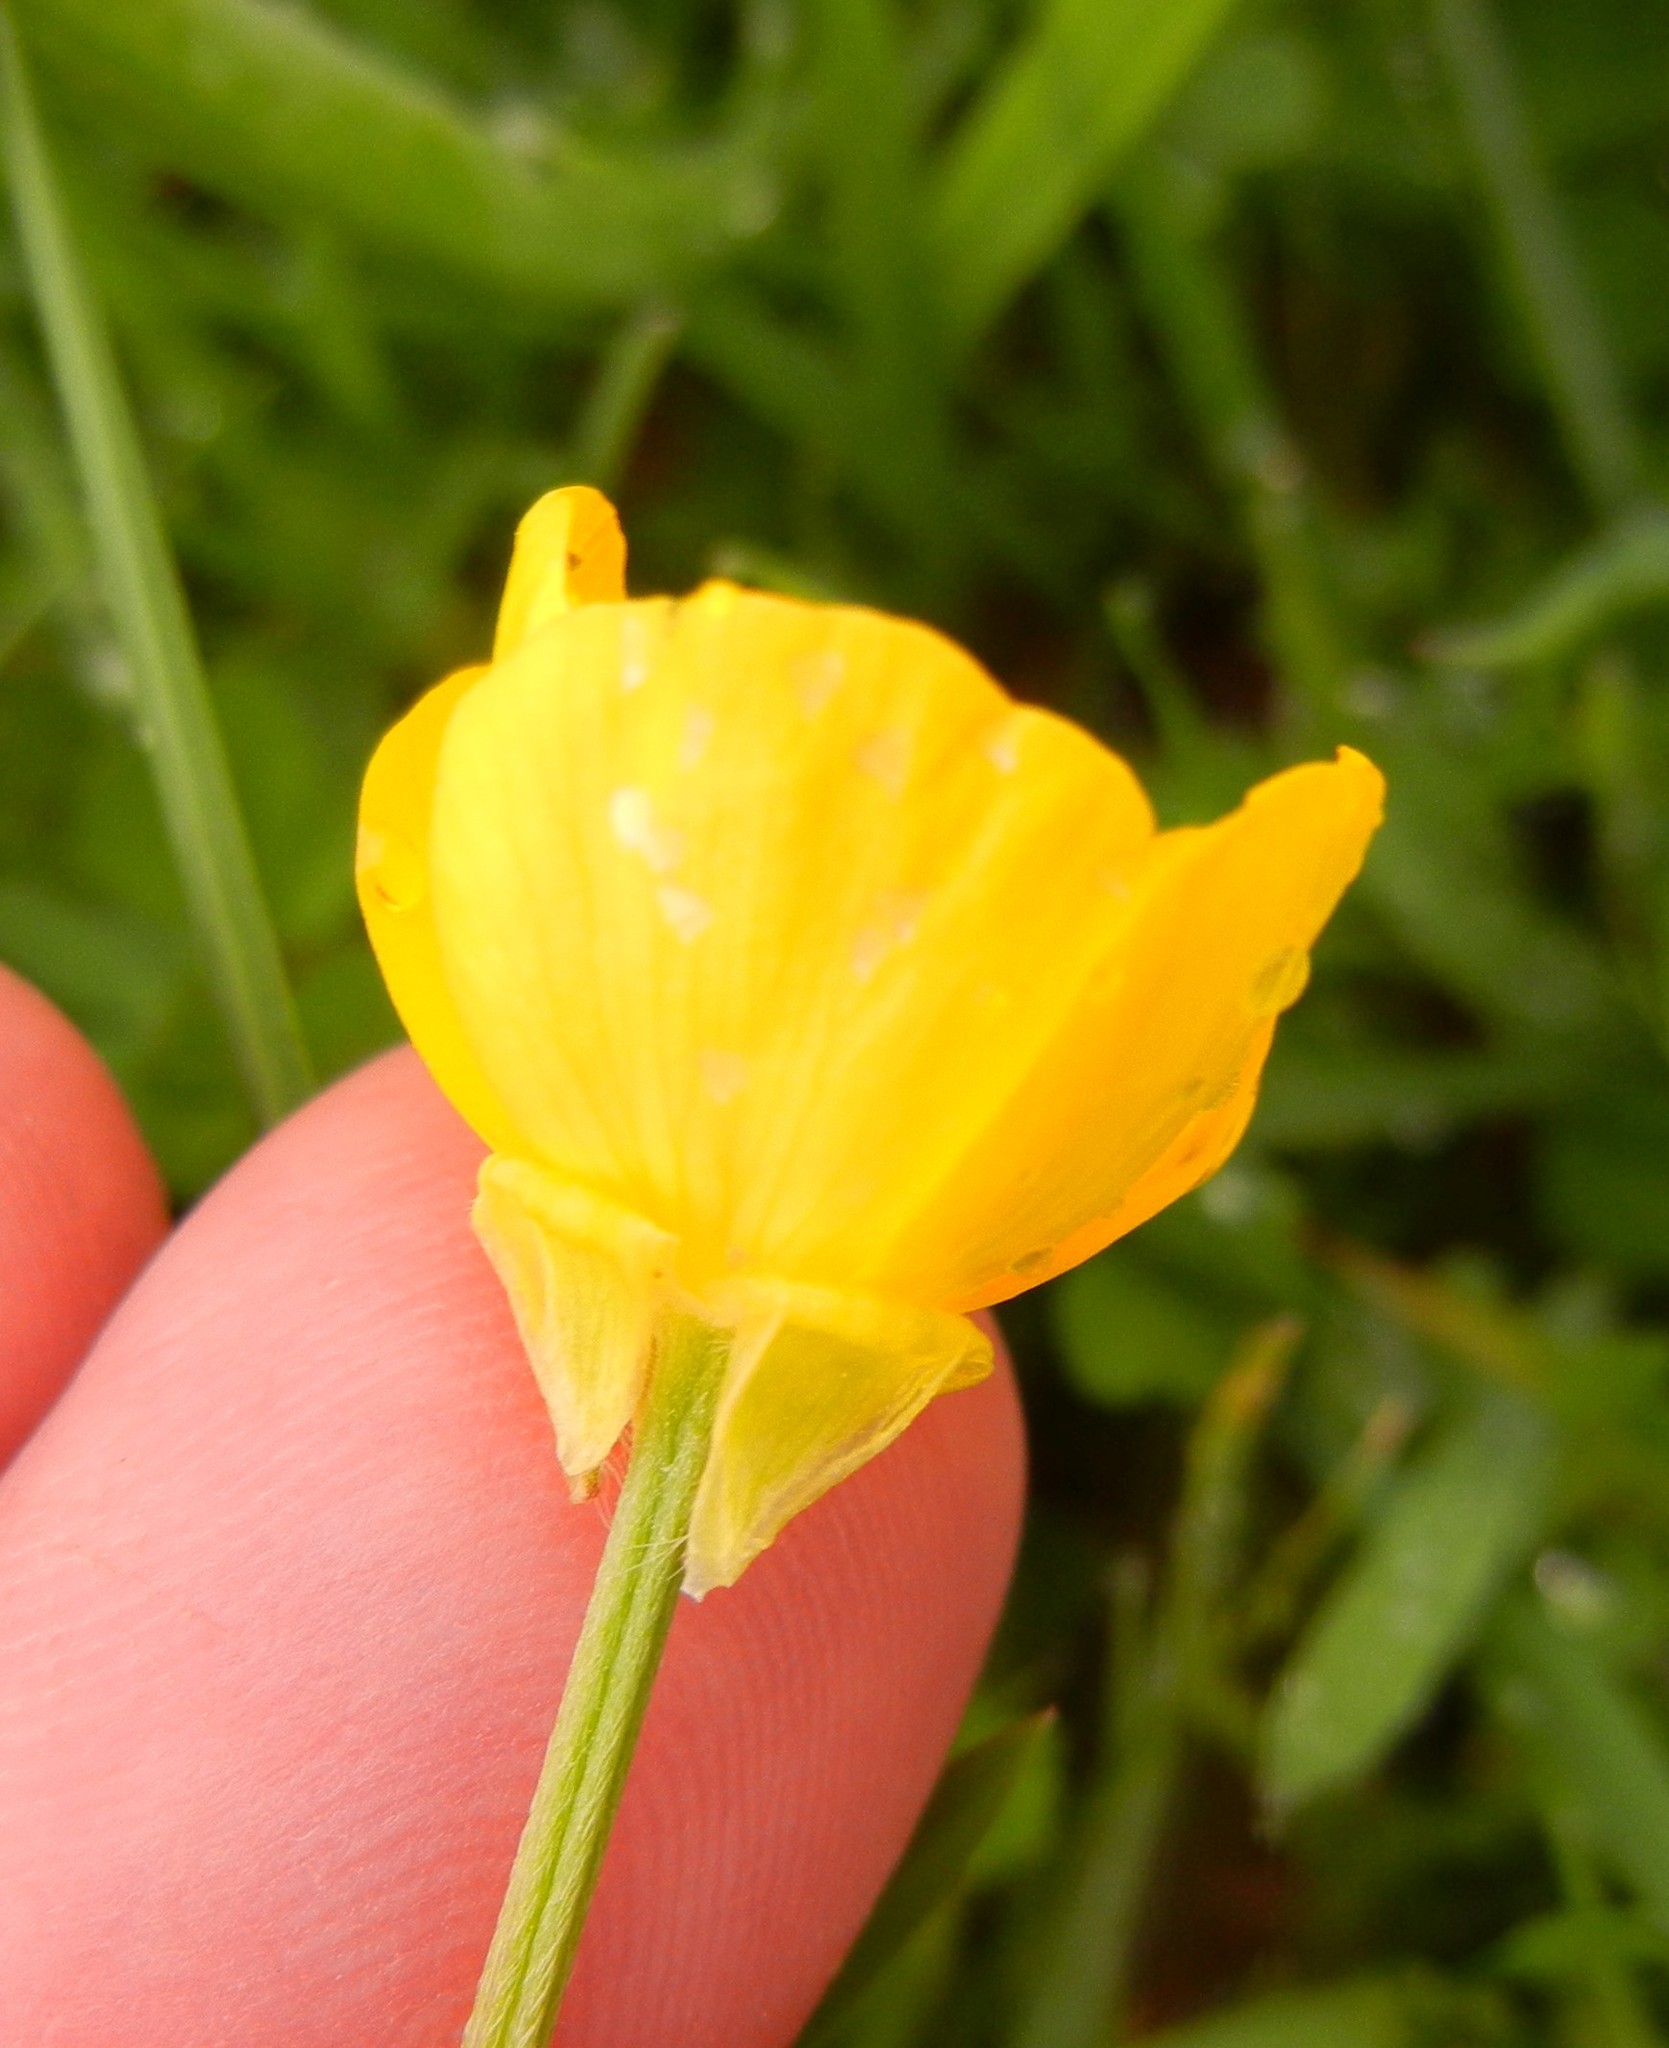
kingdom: Plantae
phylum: Tracheophyta
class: Magnoliopsida
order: Ranunculales
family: Ranunculaceae
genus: Ranunculus
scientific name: Ranunculus bulbosus
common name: Bulbous buttercup
